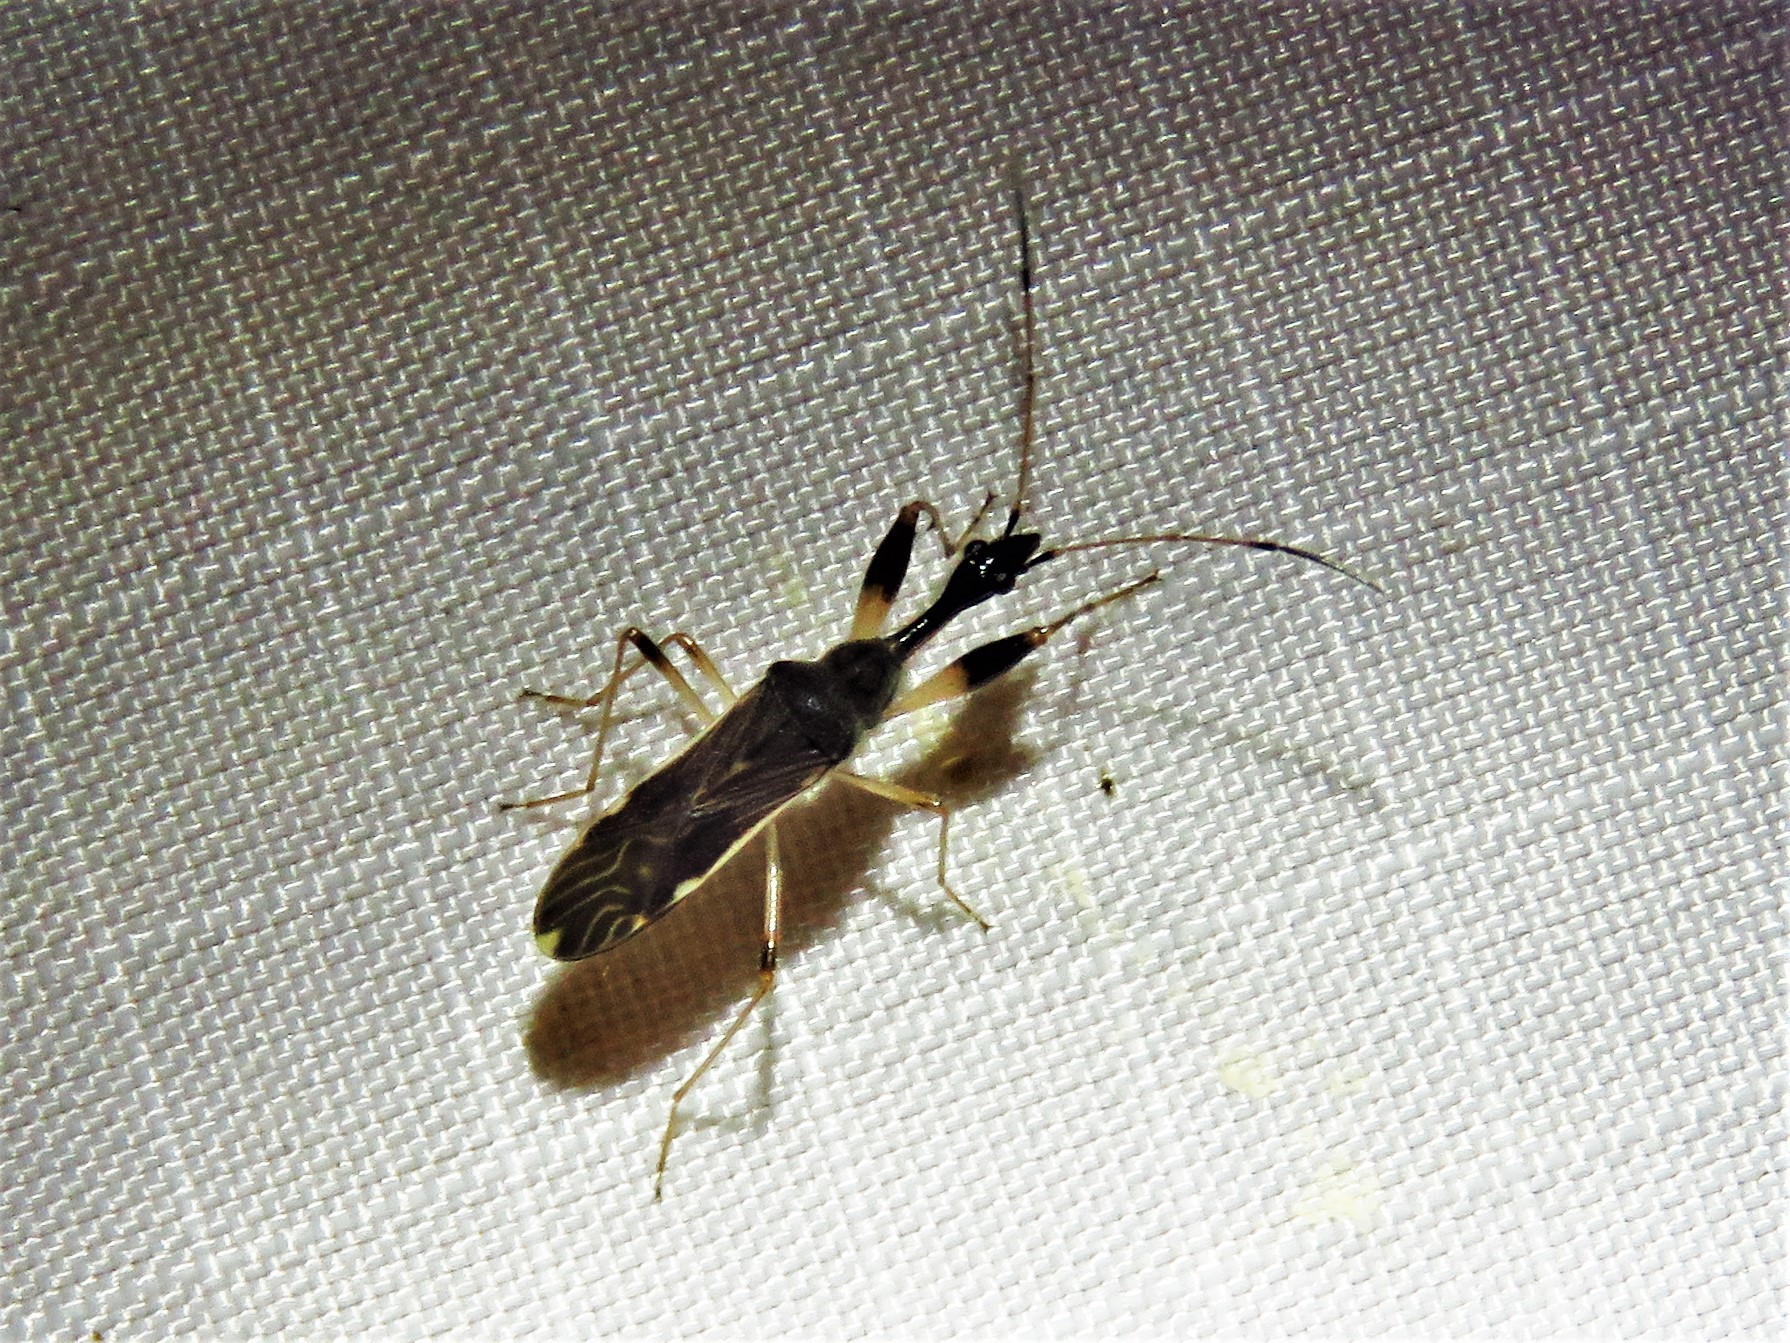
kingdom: Animalia
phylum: Arthropoda
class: Insecta
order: Hemiptera
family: Rhyparochromidae
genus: Myodocha
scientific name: Myodocha serripes
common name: Long-necked seed bug
